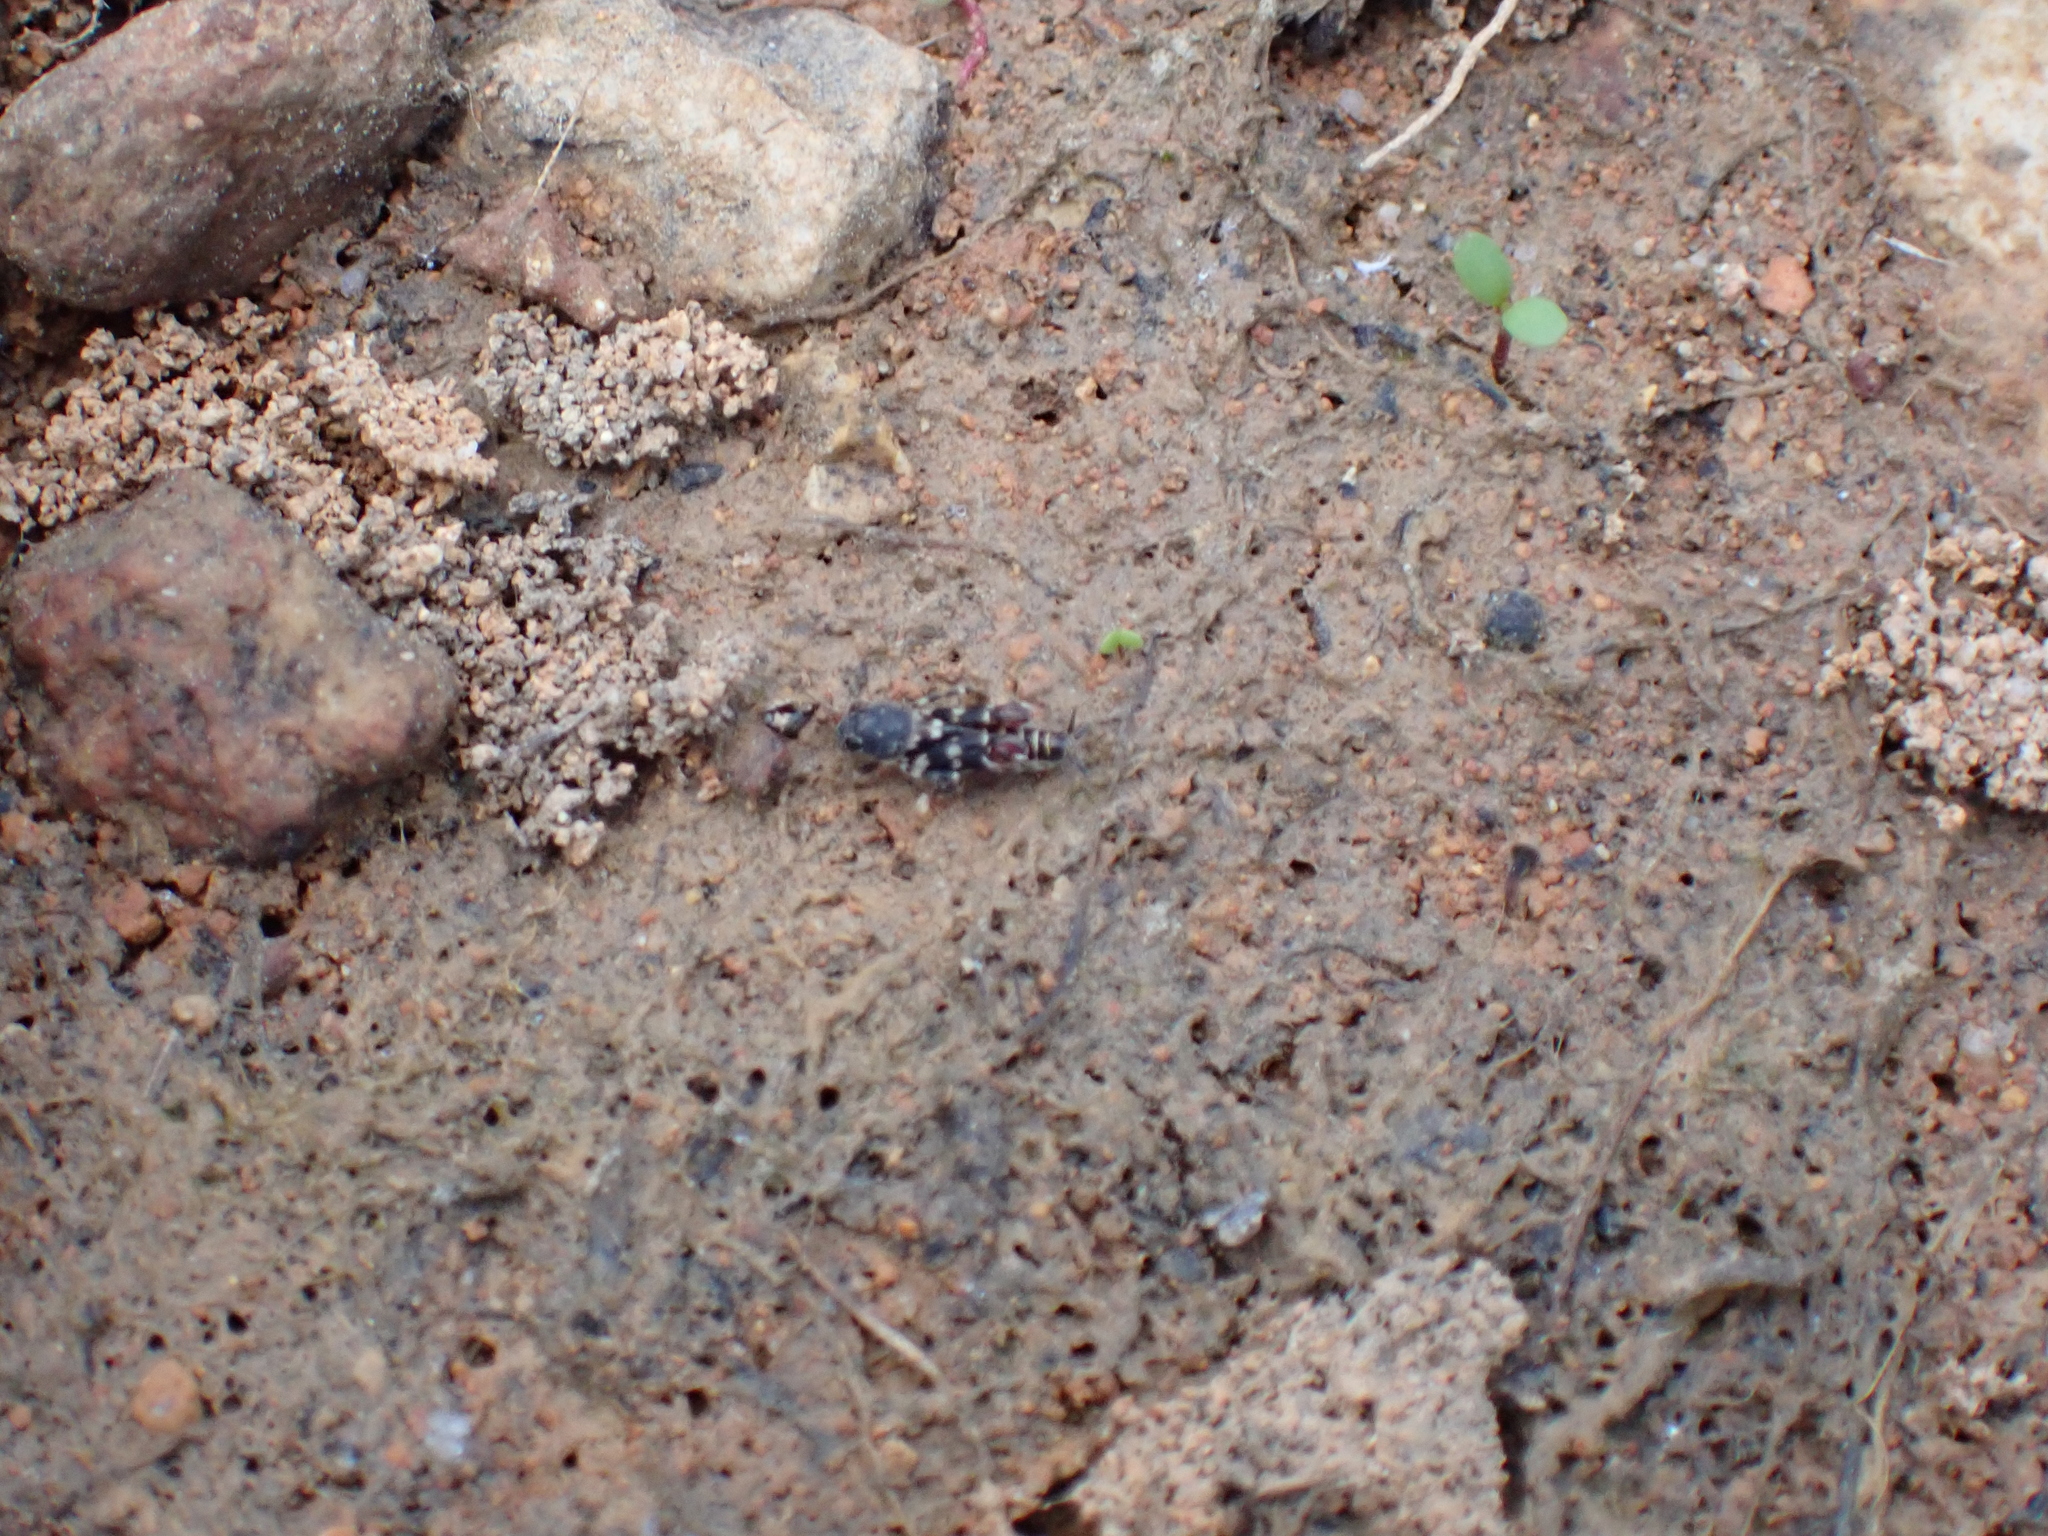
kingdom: Animalia
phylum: Arthropoda
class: Insecta
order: Orthoptera
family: Tridactylidae
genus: Ellipes
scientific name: Ellipes minuta
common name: Minute pygmy locust
